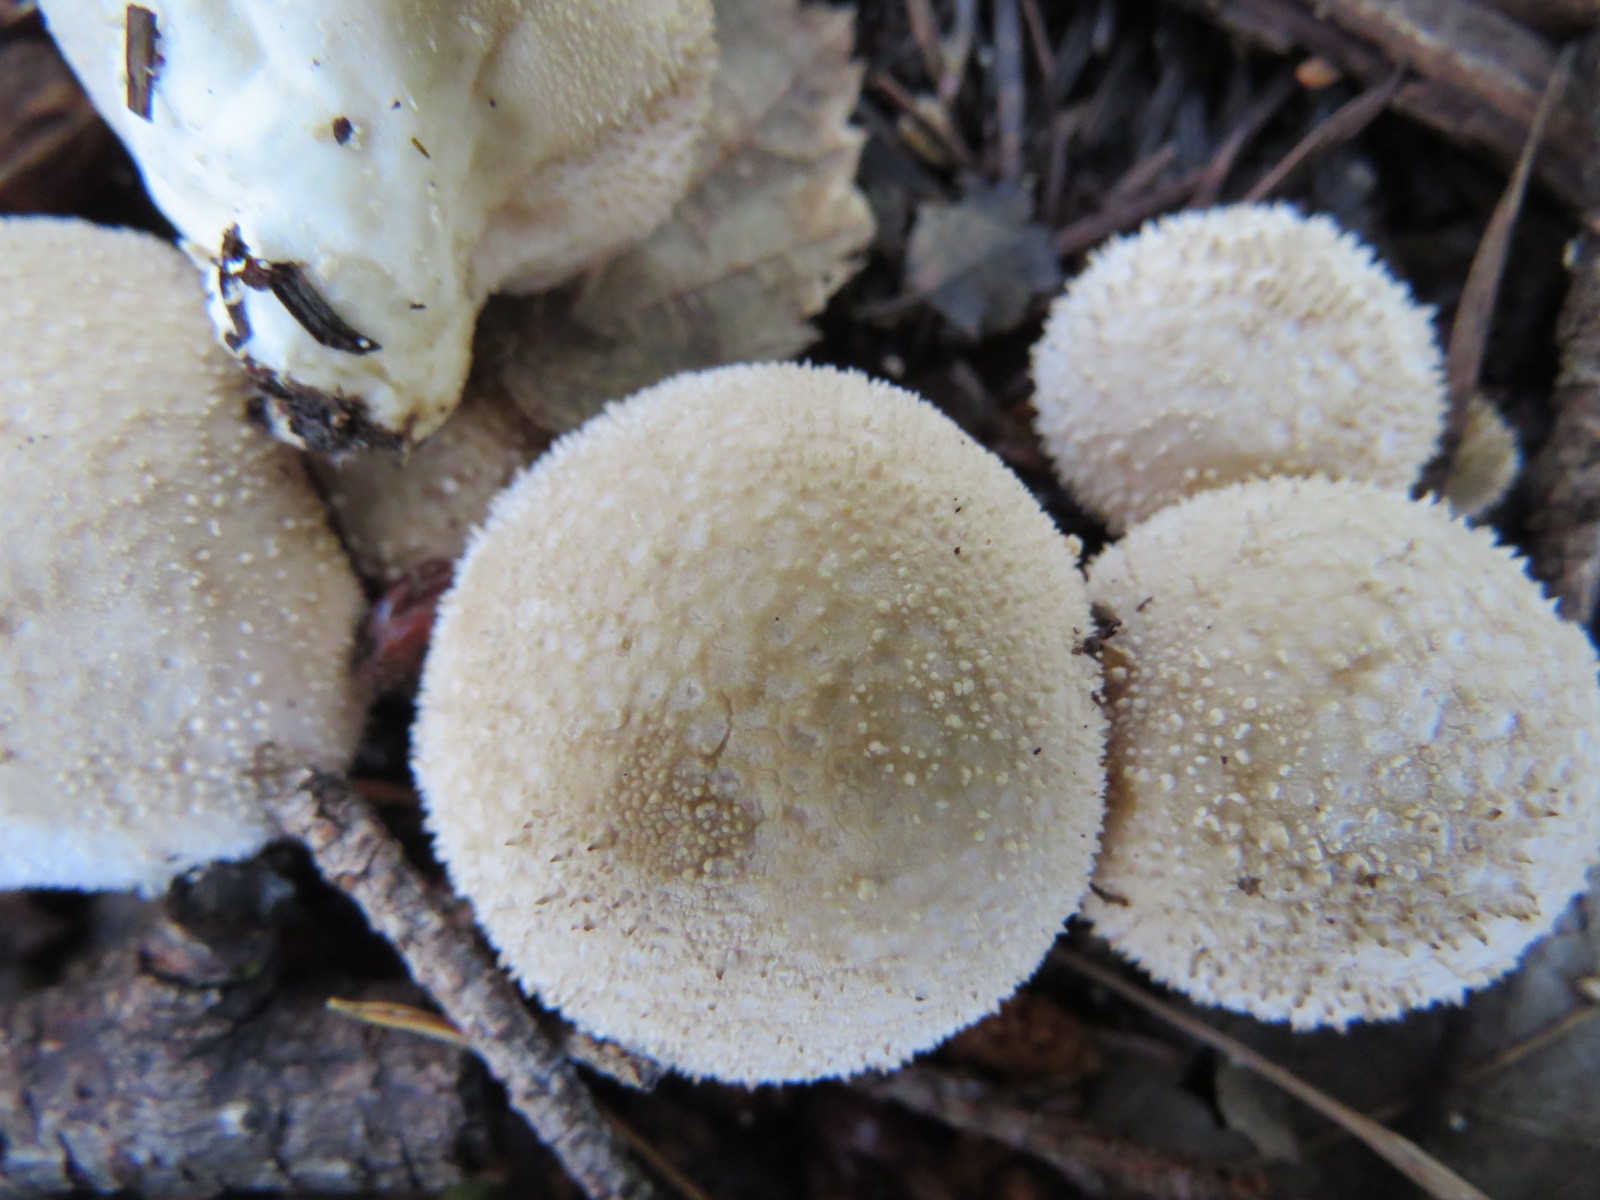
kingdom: Fungi
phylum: Basidiomycota
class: Agaricomycetes
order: Agaricales
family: Lycoperdaceae
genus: Lycoperdon
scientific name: Lycoperdon perlatum
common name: Common puffball
